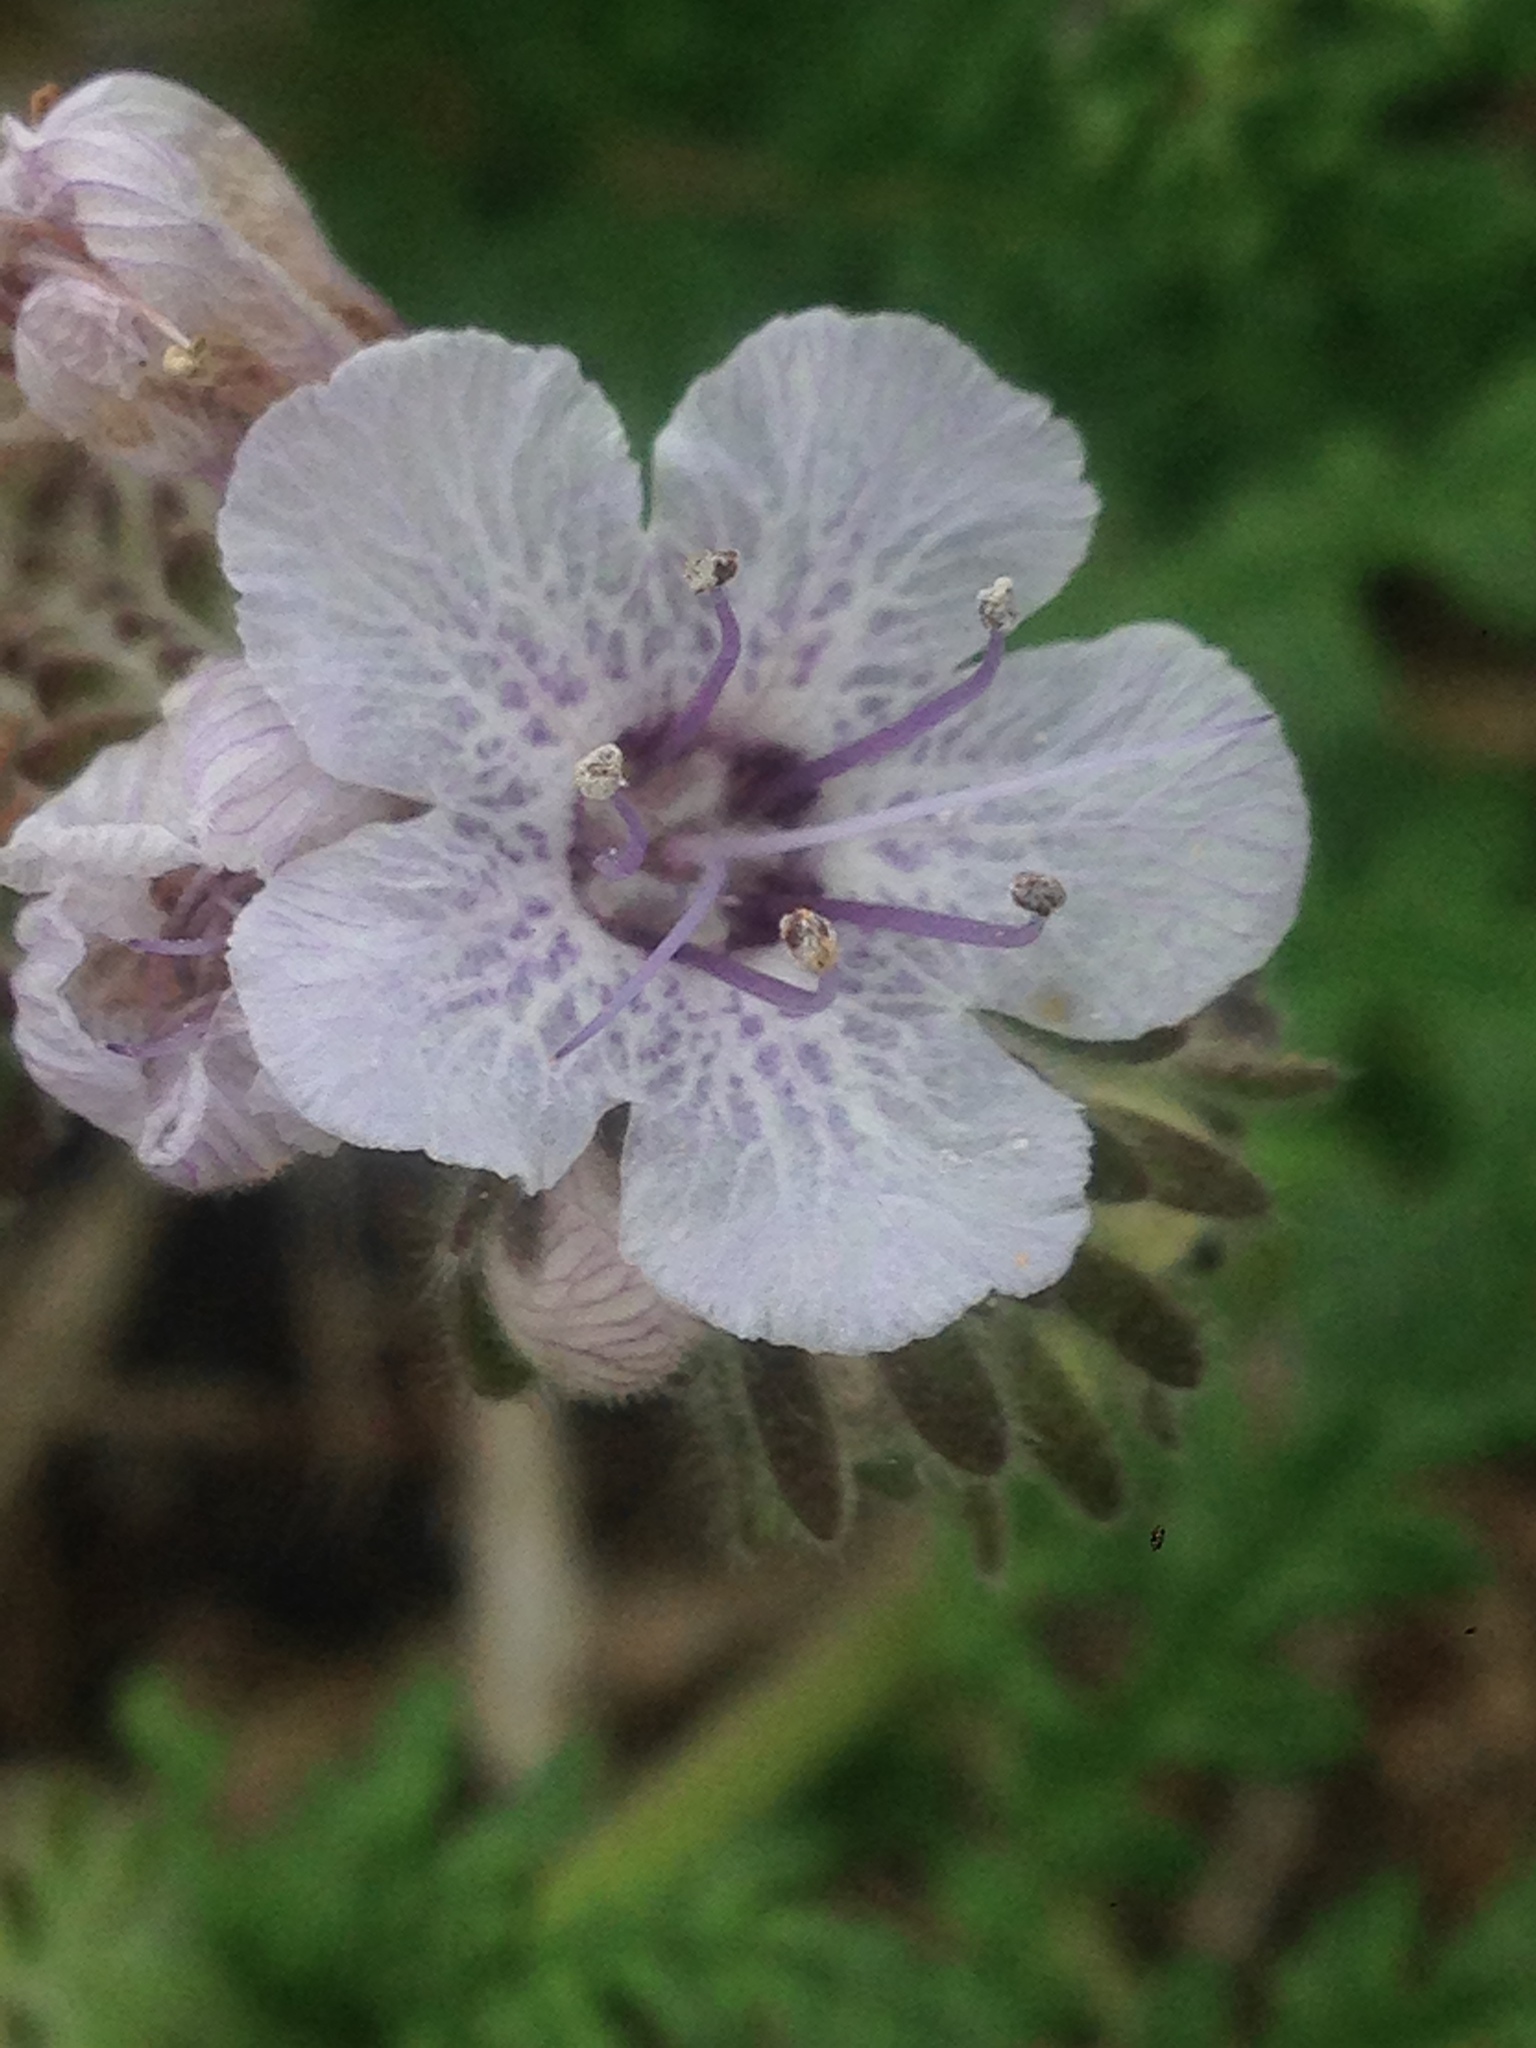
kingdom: Plantae
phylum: Tracheophyta
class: Magnoliopsida
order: Boraginales
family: Hydrophyllaceae
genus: Phacelia
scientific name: Phacelia distans
